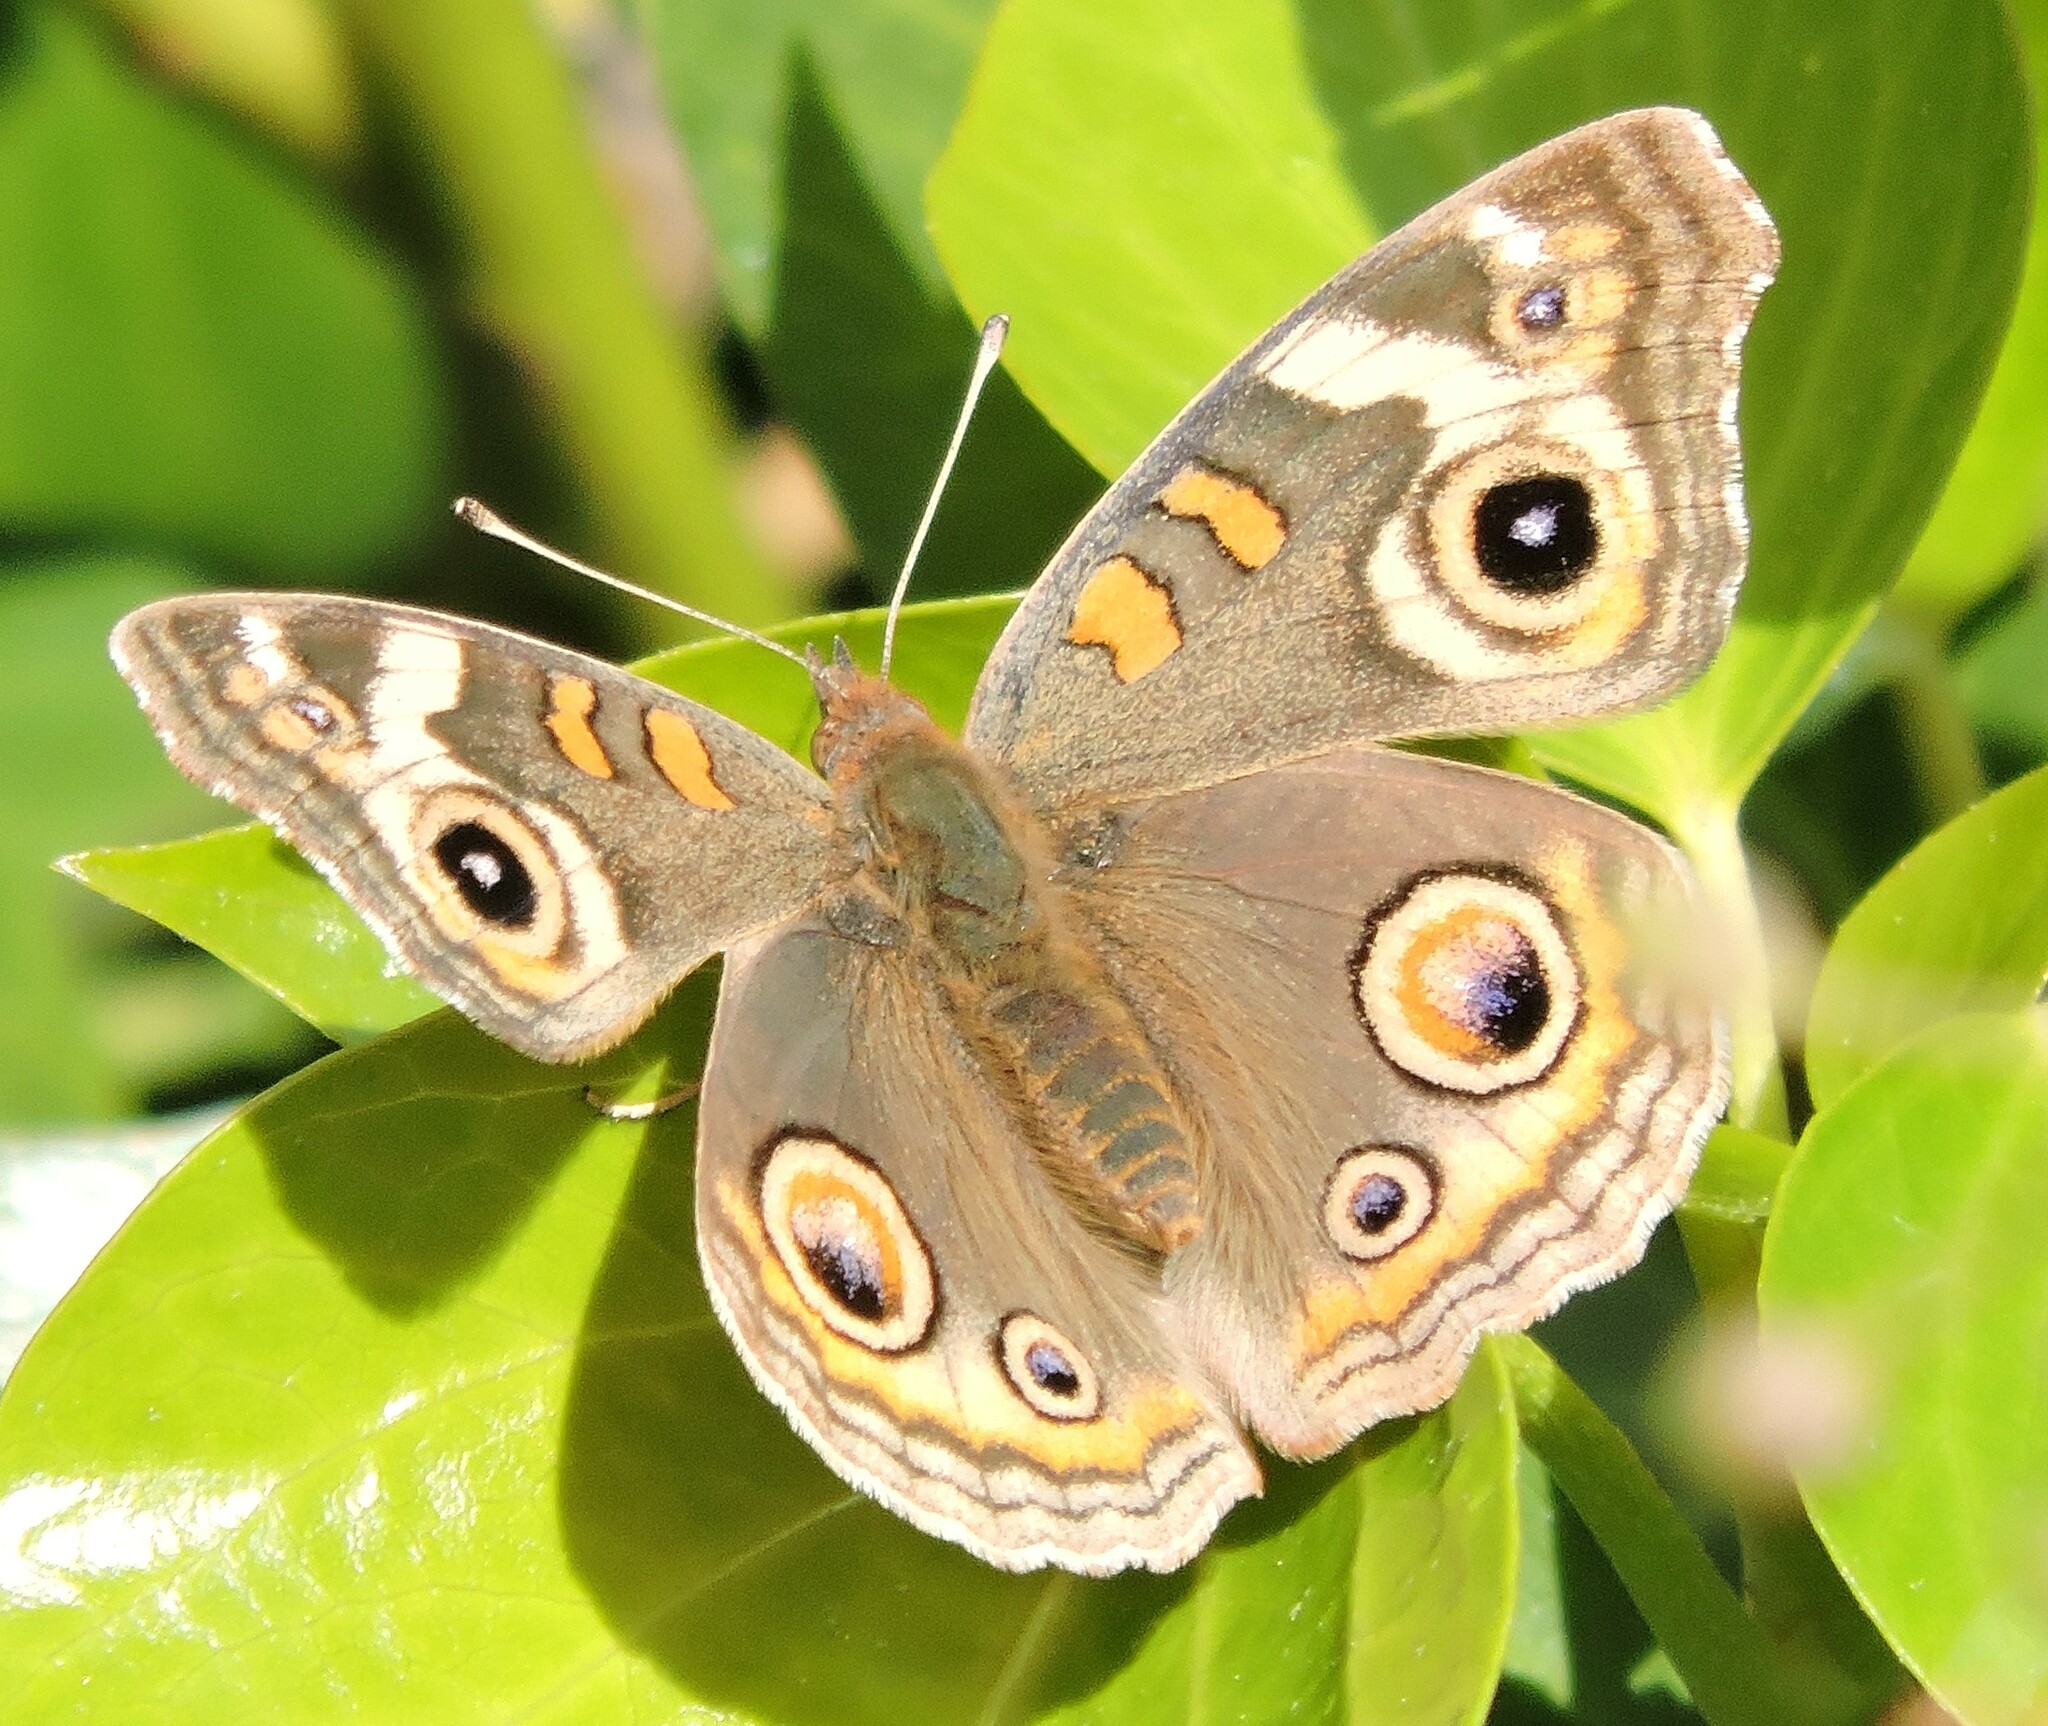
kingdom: Animalia
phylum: Arthropoda
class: Insecta
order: Lepidoptera
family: Nymphalidae
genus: Junonia
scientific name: Junonia grisea
